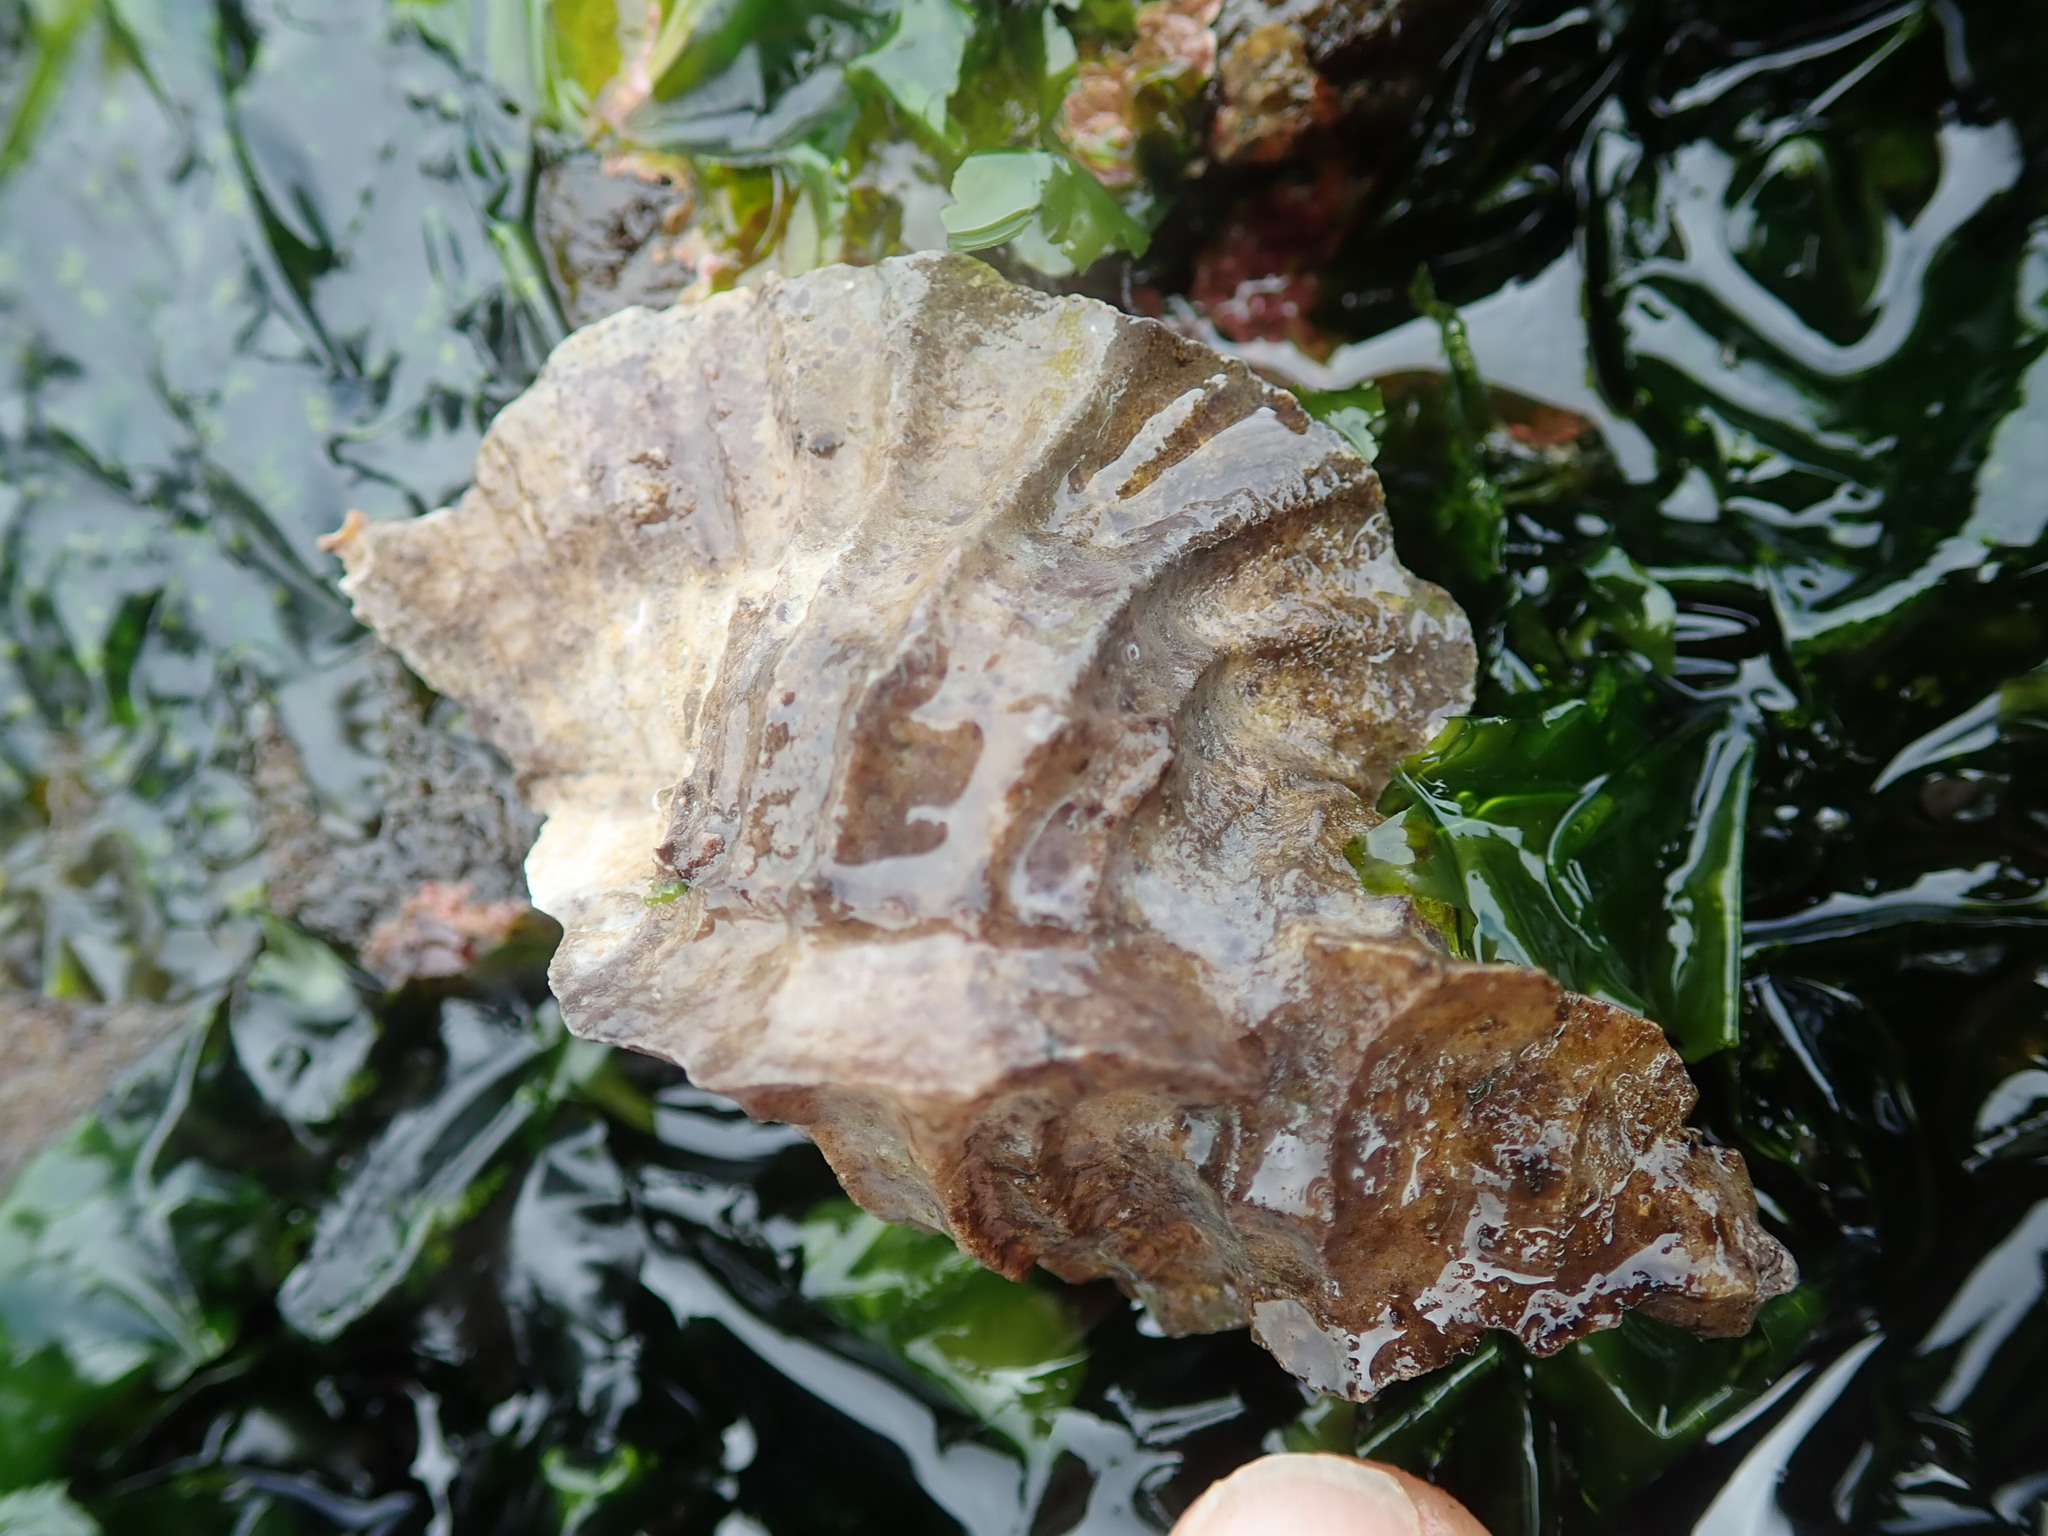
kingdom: Animalia
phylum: Mollusca
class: Gastropoda
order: Neogastropoda
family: Muricidae
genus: Ceratostoma
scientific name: Ceratostoma foliatum
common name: Foliate thorn purpura
